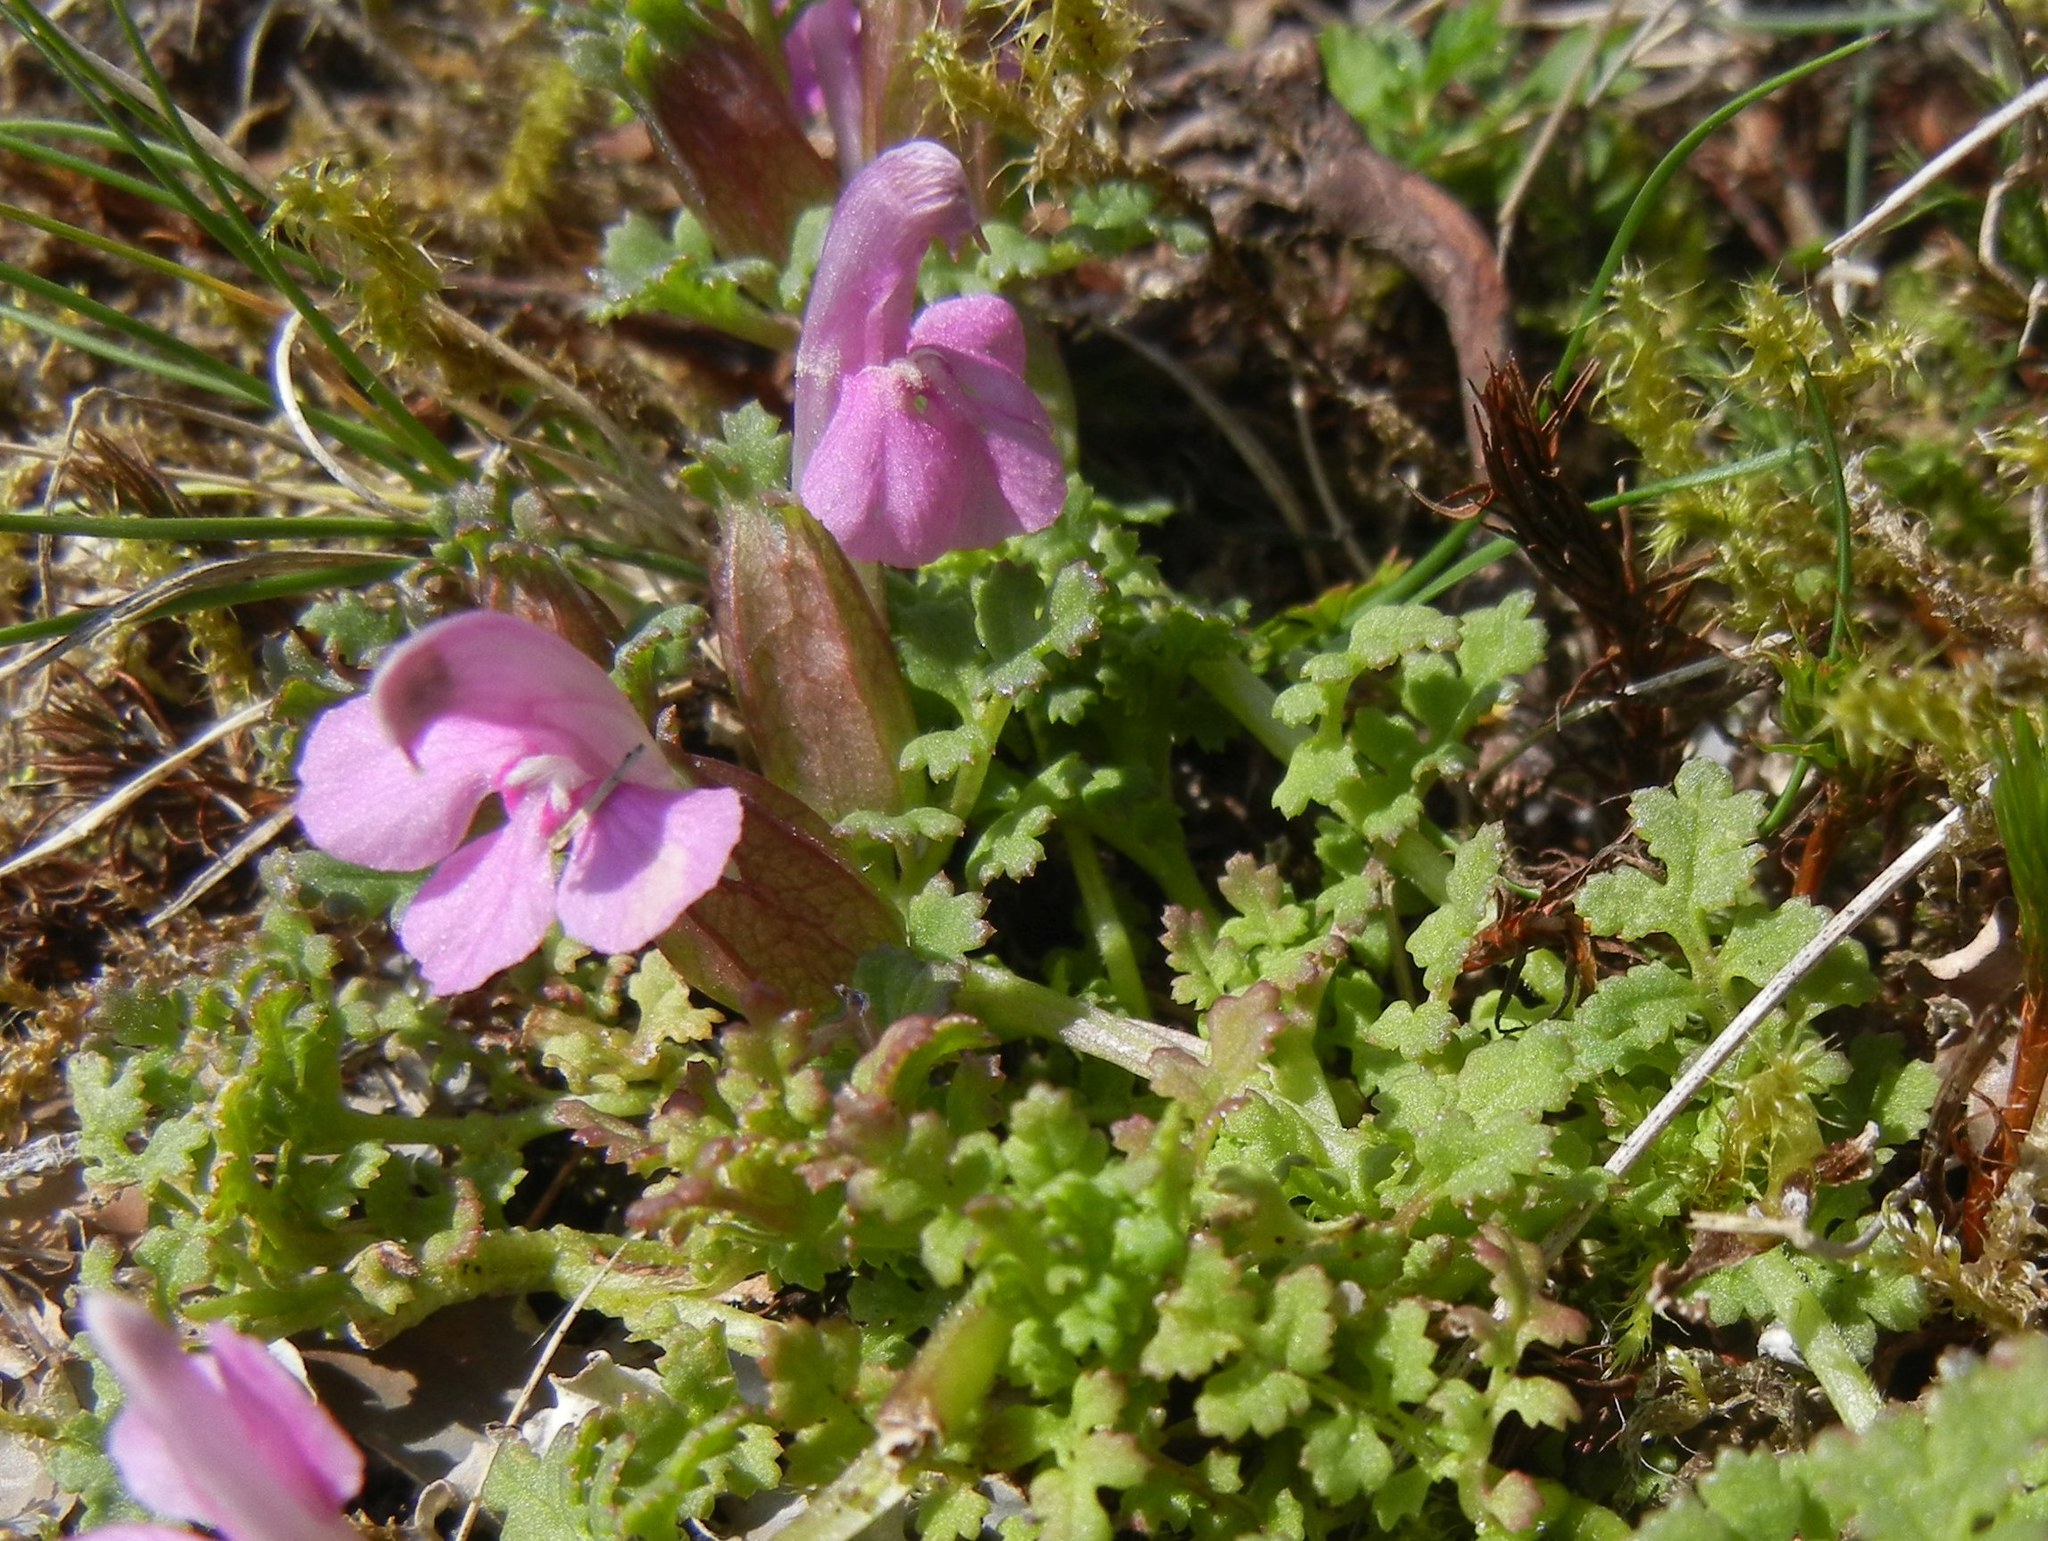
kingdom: Plantae
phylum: Tracheophyta
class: Magnoliopsida
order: Lamiales
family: Orobanchaceae
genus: Pedicularis
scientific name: Pedicularis sylvatica
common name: Lousewort
